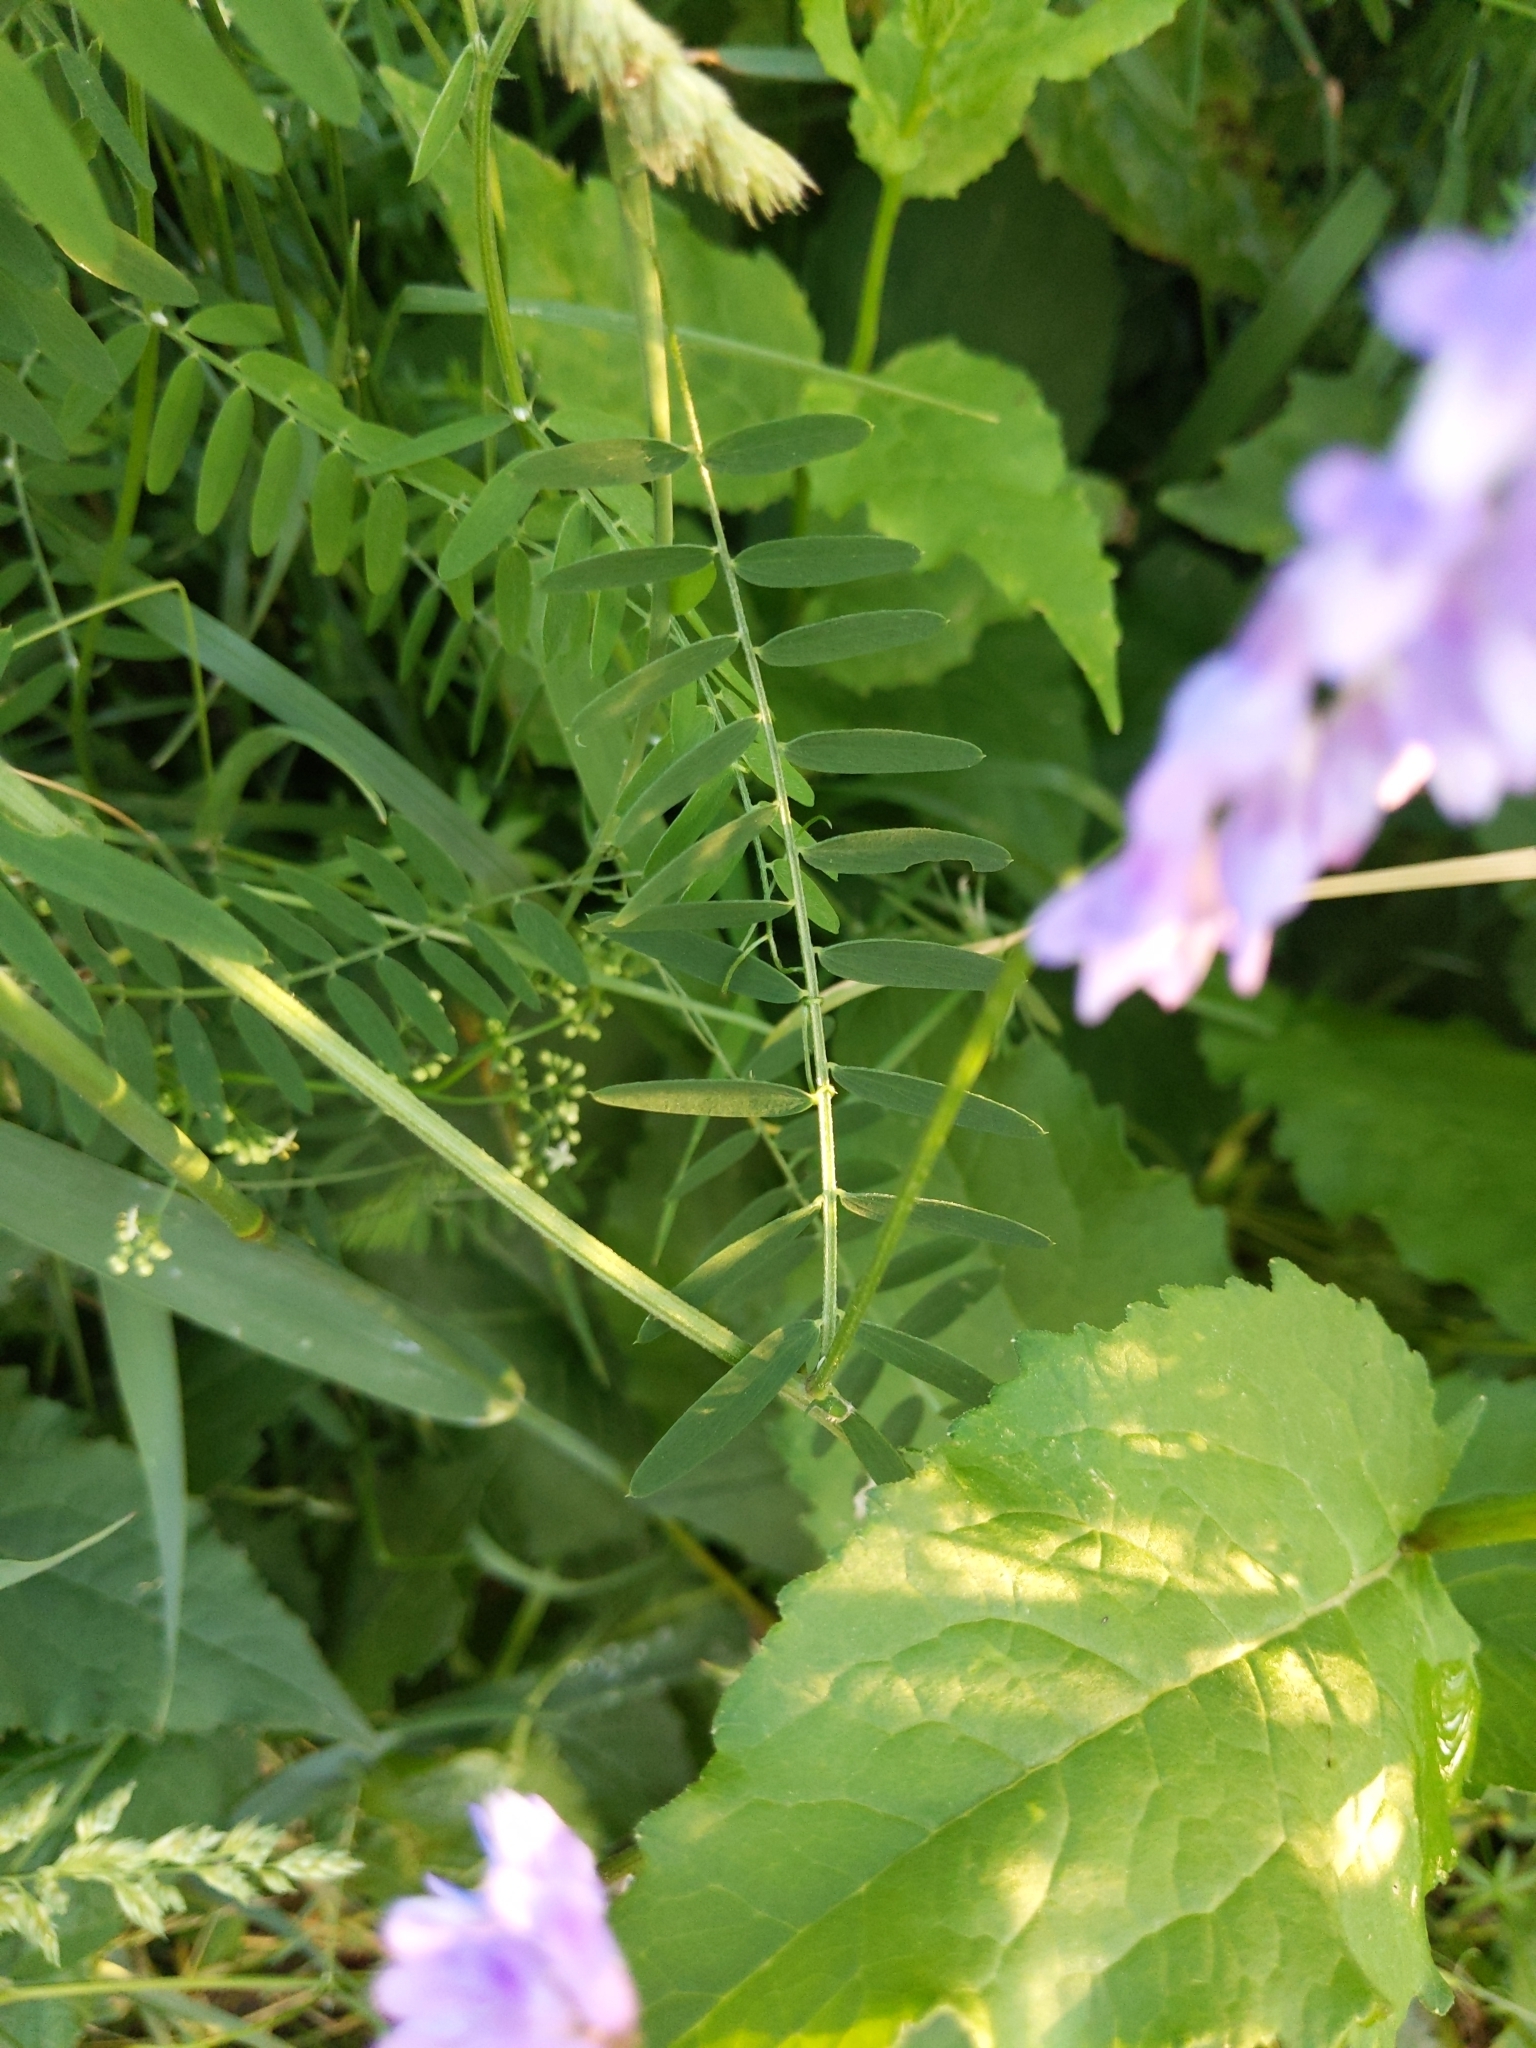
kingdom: Plantae
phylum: Tracheophyta
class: Magnoliopsida
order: Fabales
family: Fabaceae
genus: Vicia
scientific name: Vicia cracca
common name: Bird vetch
